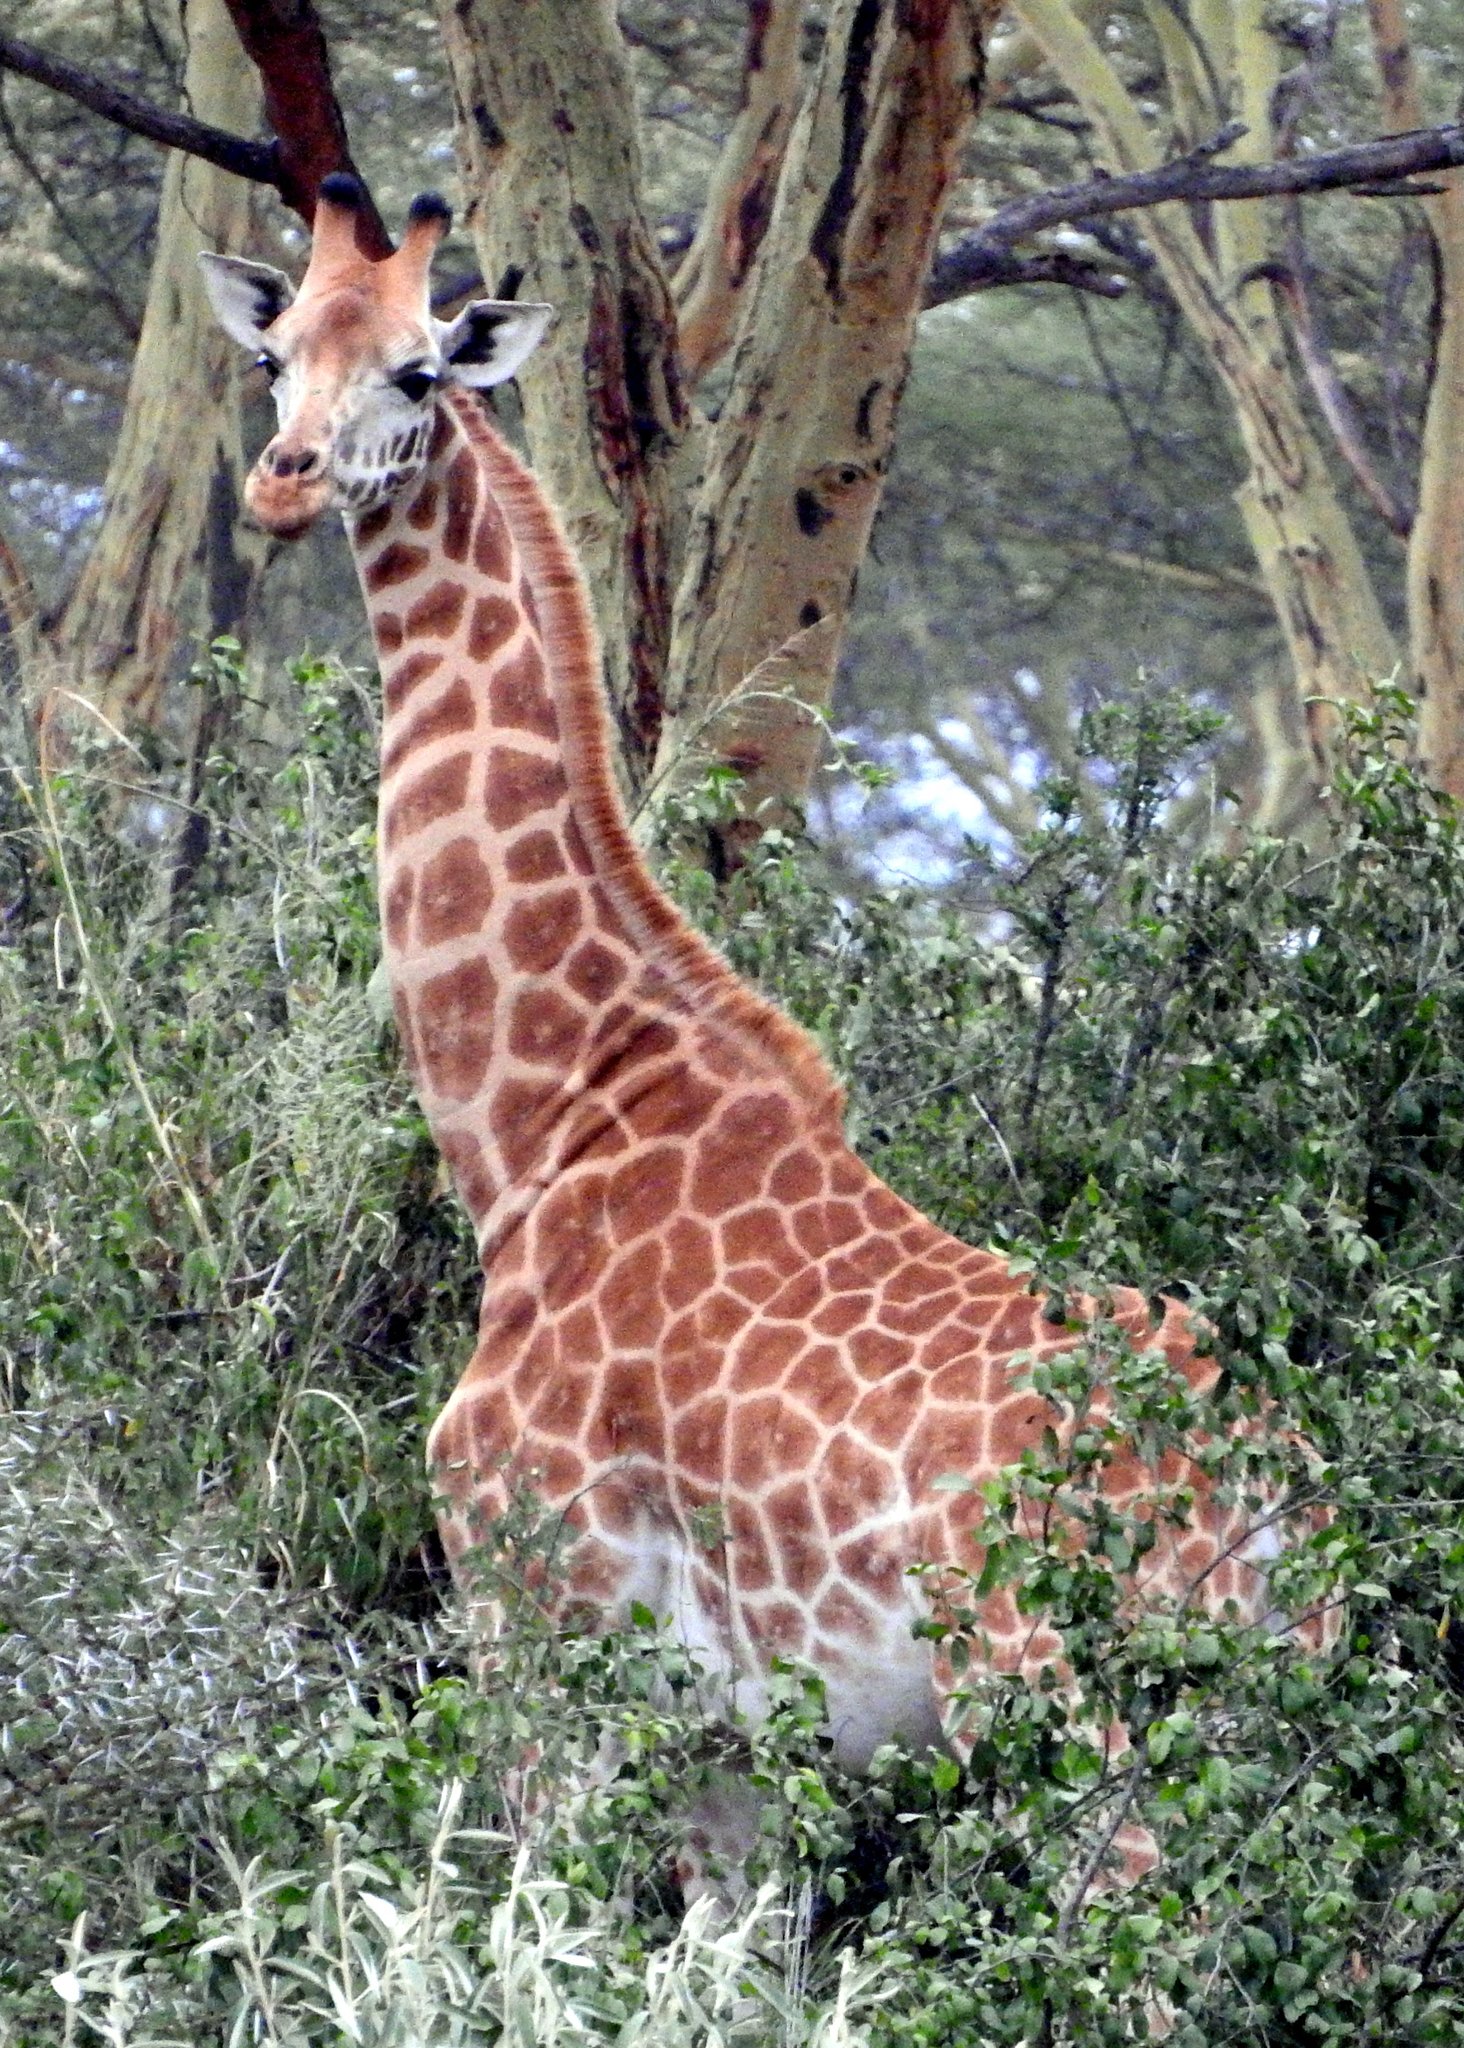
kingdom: Animalia
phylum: Chordata
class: Mammalia
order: Artiodactyla
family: Giraffidae
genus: Giraffa
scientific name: Giraffa camelopardalis
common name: Giraffe
